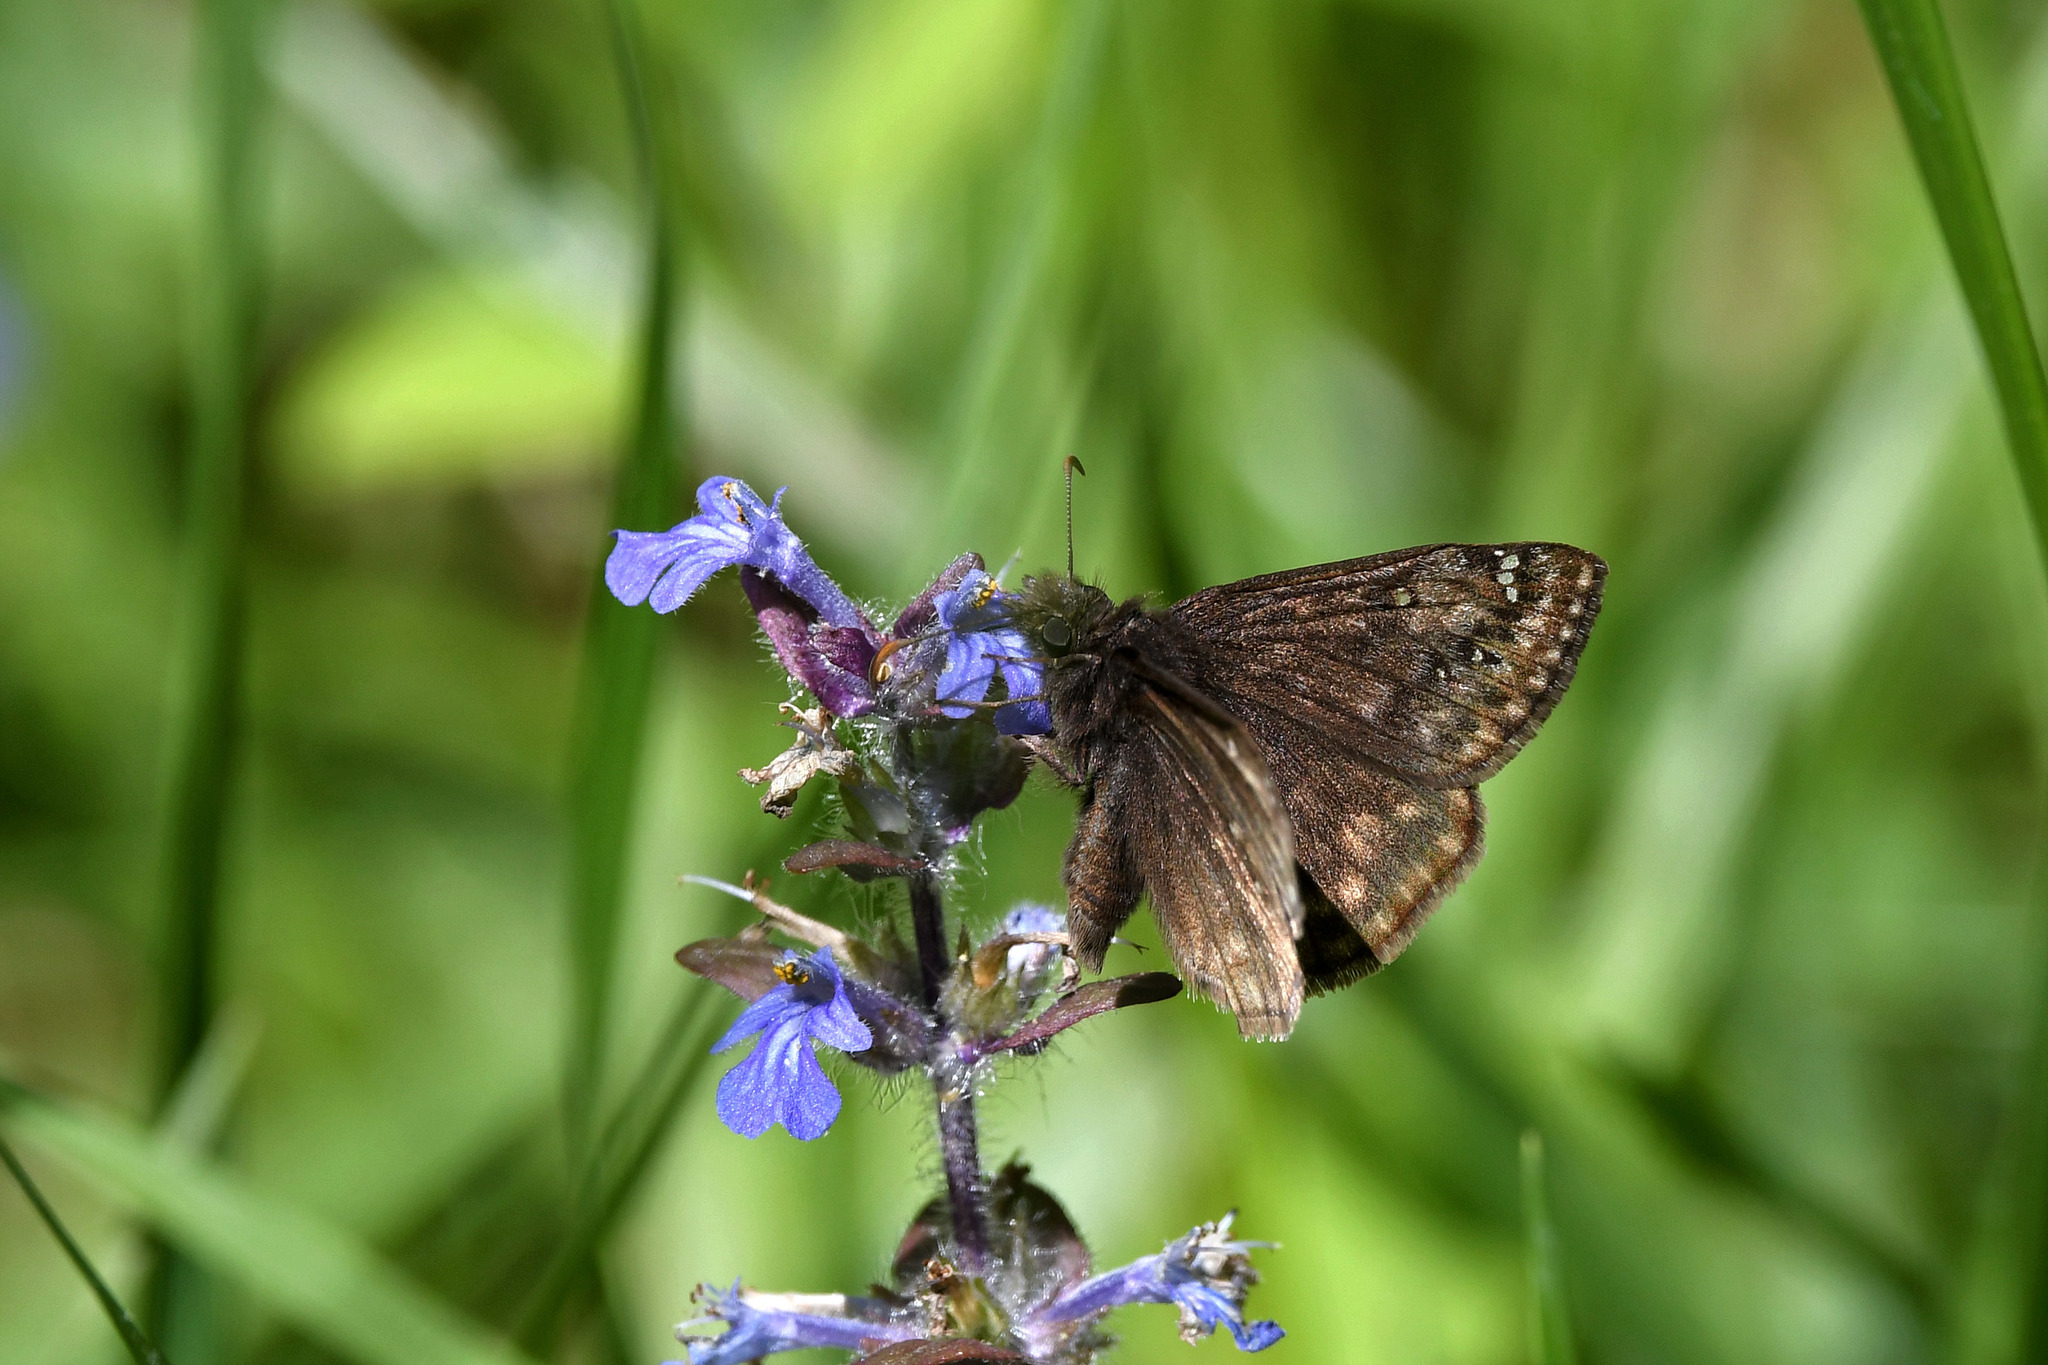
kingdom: Animalia
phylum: Arthropoda
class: Insecta
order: Lepidoptera
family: Hesperiidae
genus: Erynnis
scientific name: Erynnis baptisiae
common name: Wild indigo duskywing
